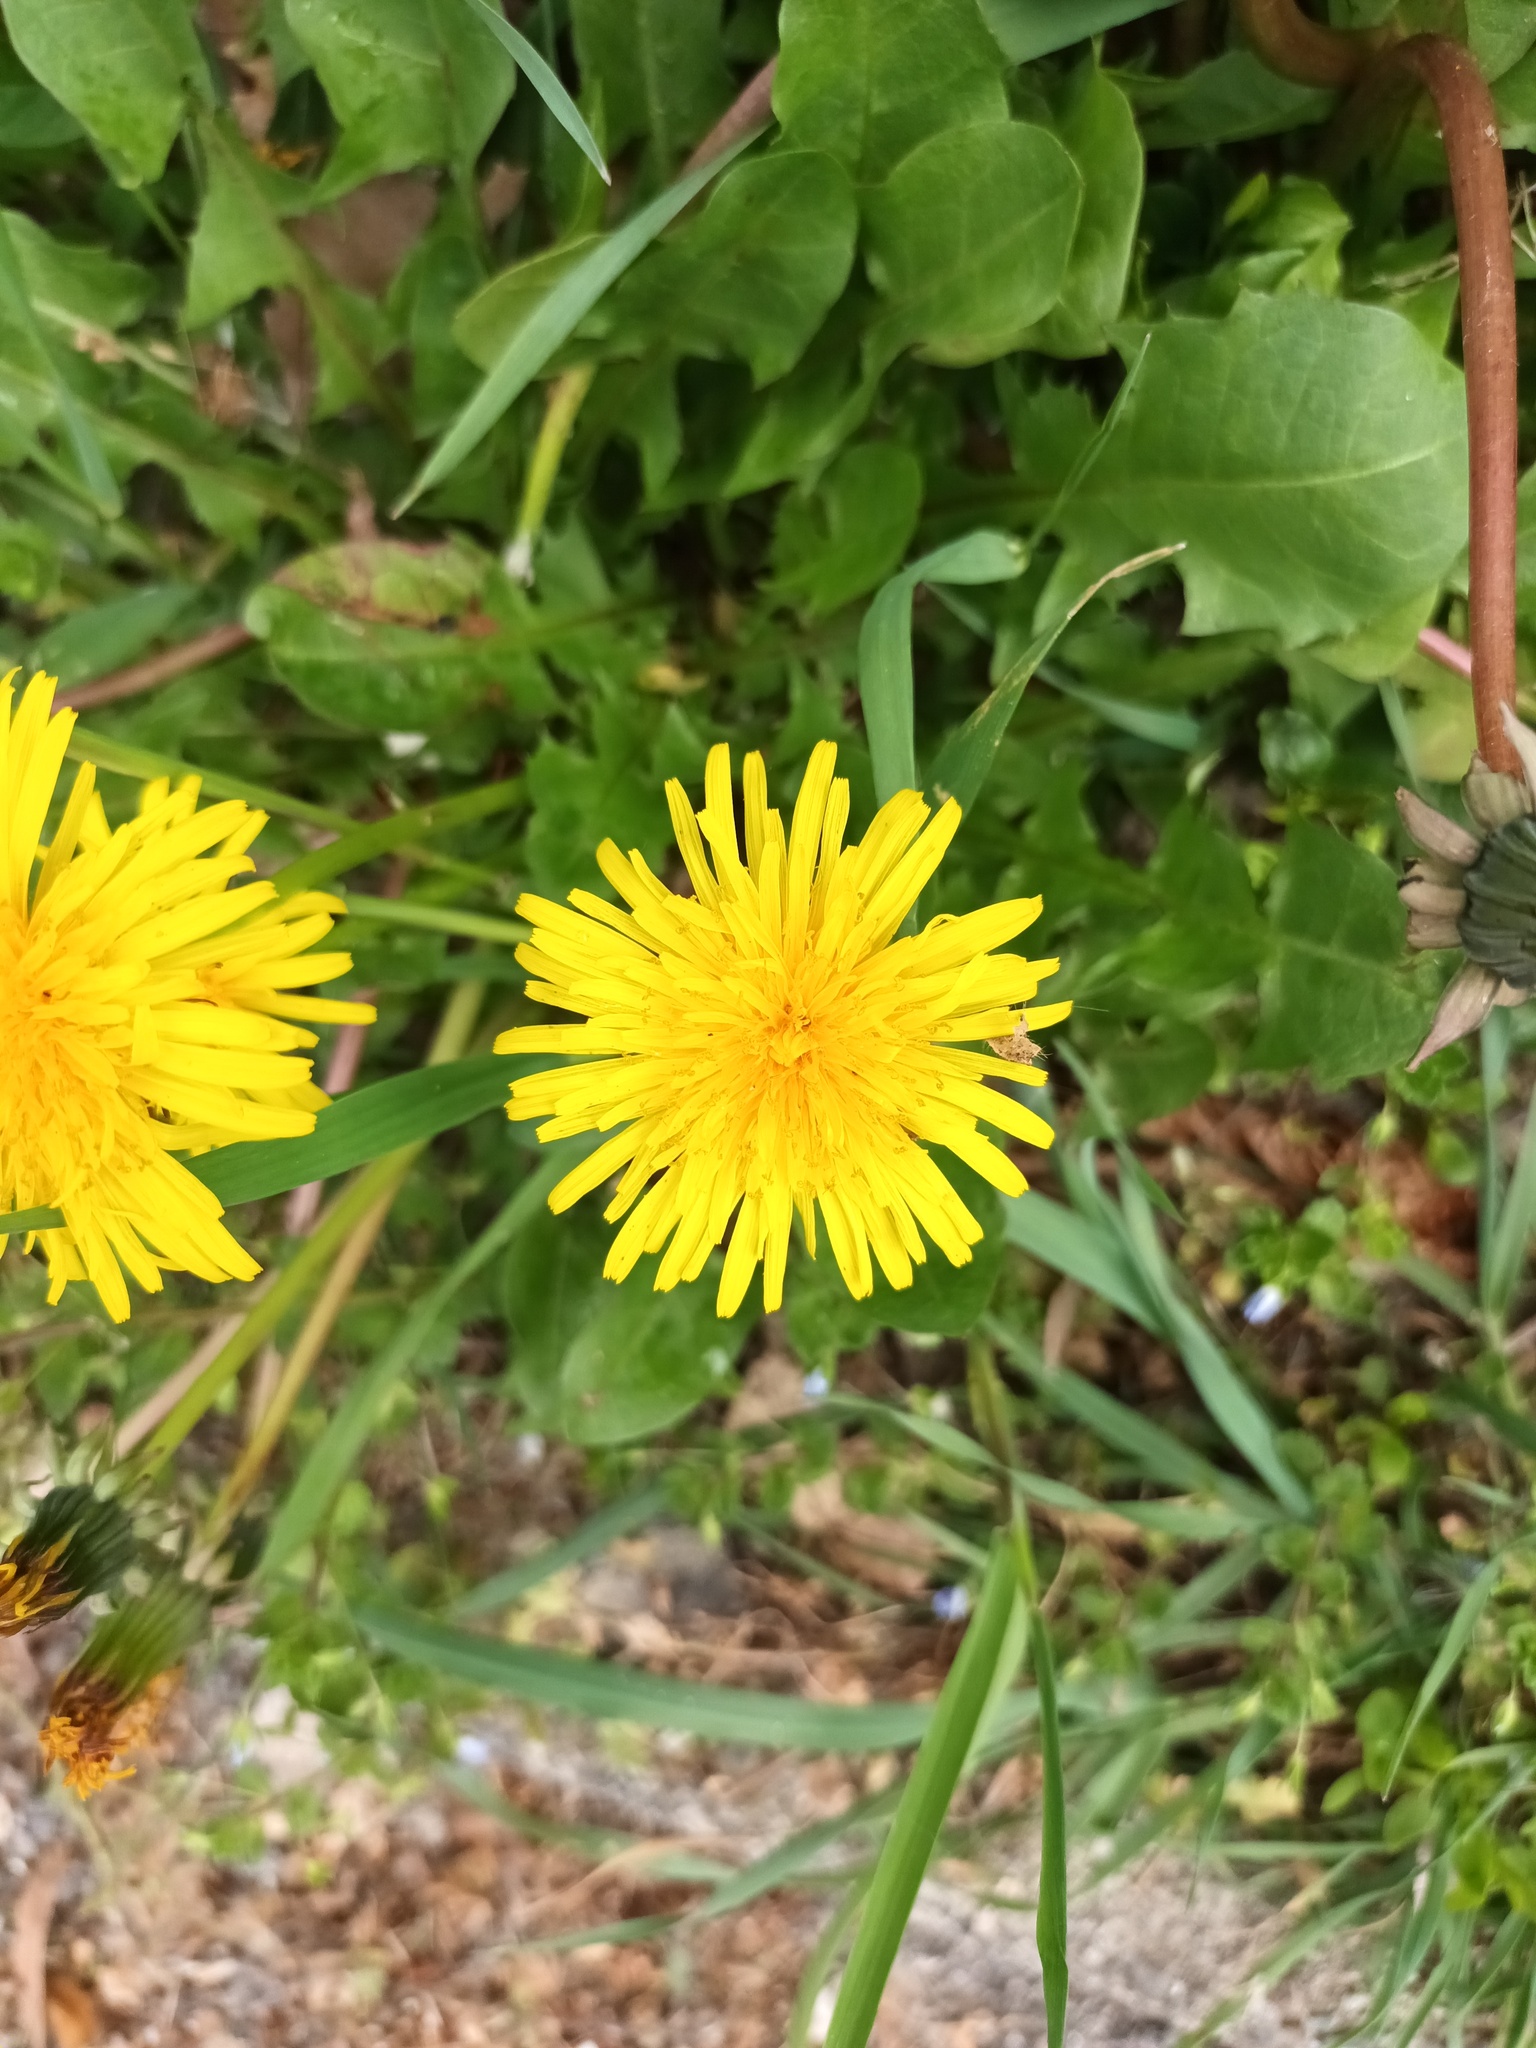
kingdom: Plantae
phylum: Tracheophyta
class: Magnoliopsida
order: Asterales
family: Asteraceae
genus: Taraxacum
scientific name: Taraxacum officinale
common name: Common dandelion
